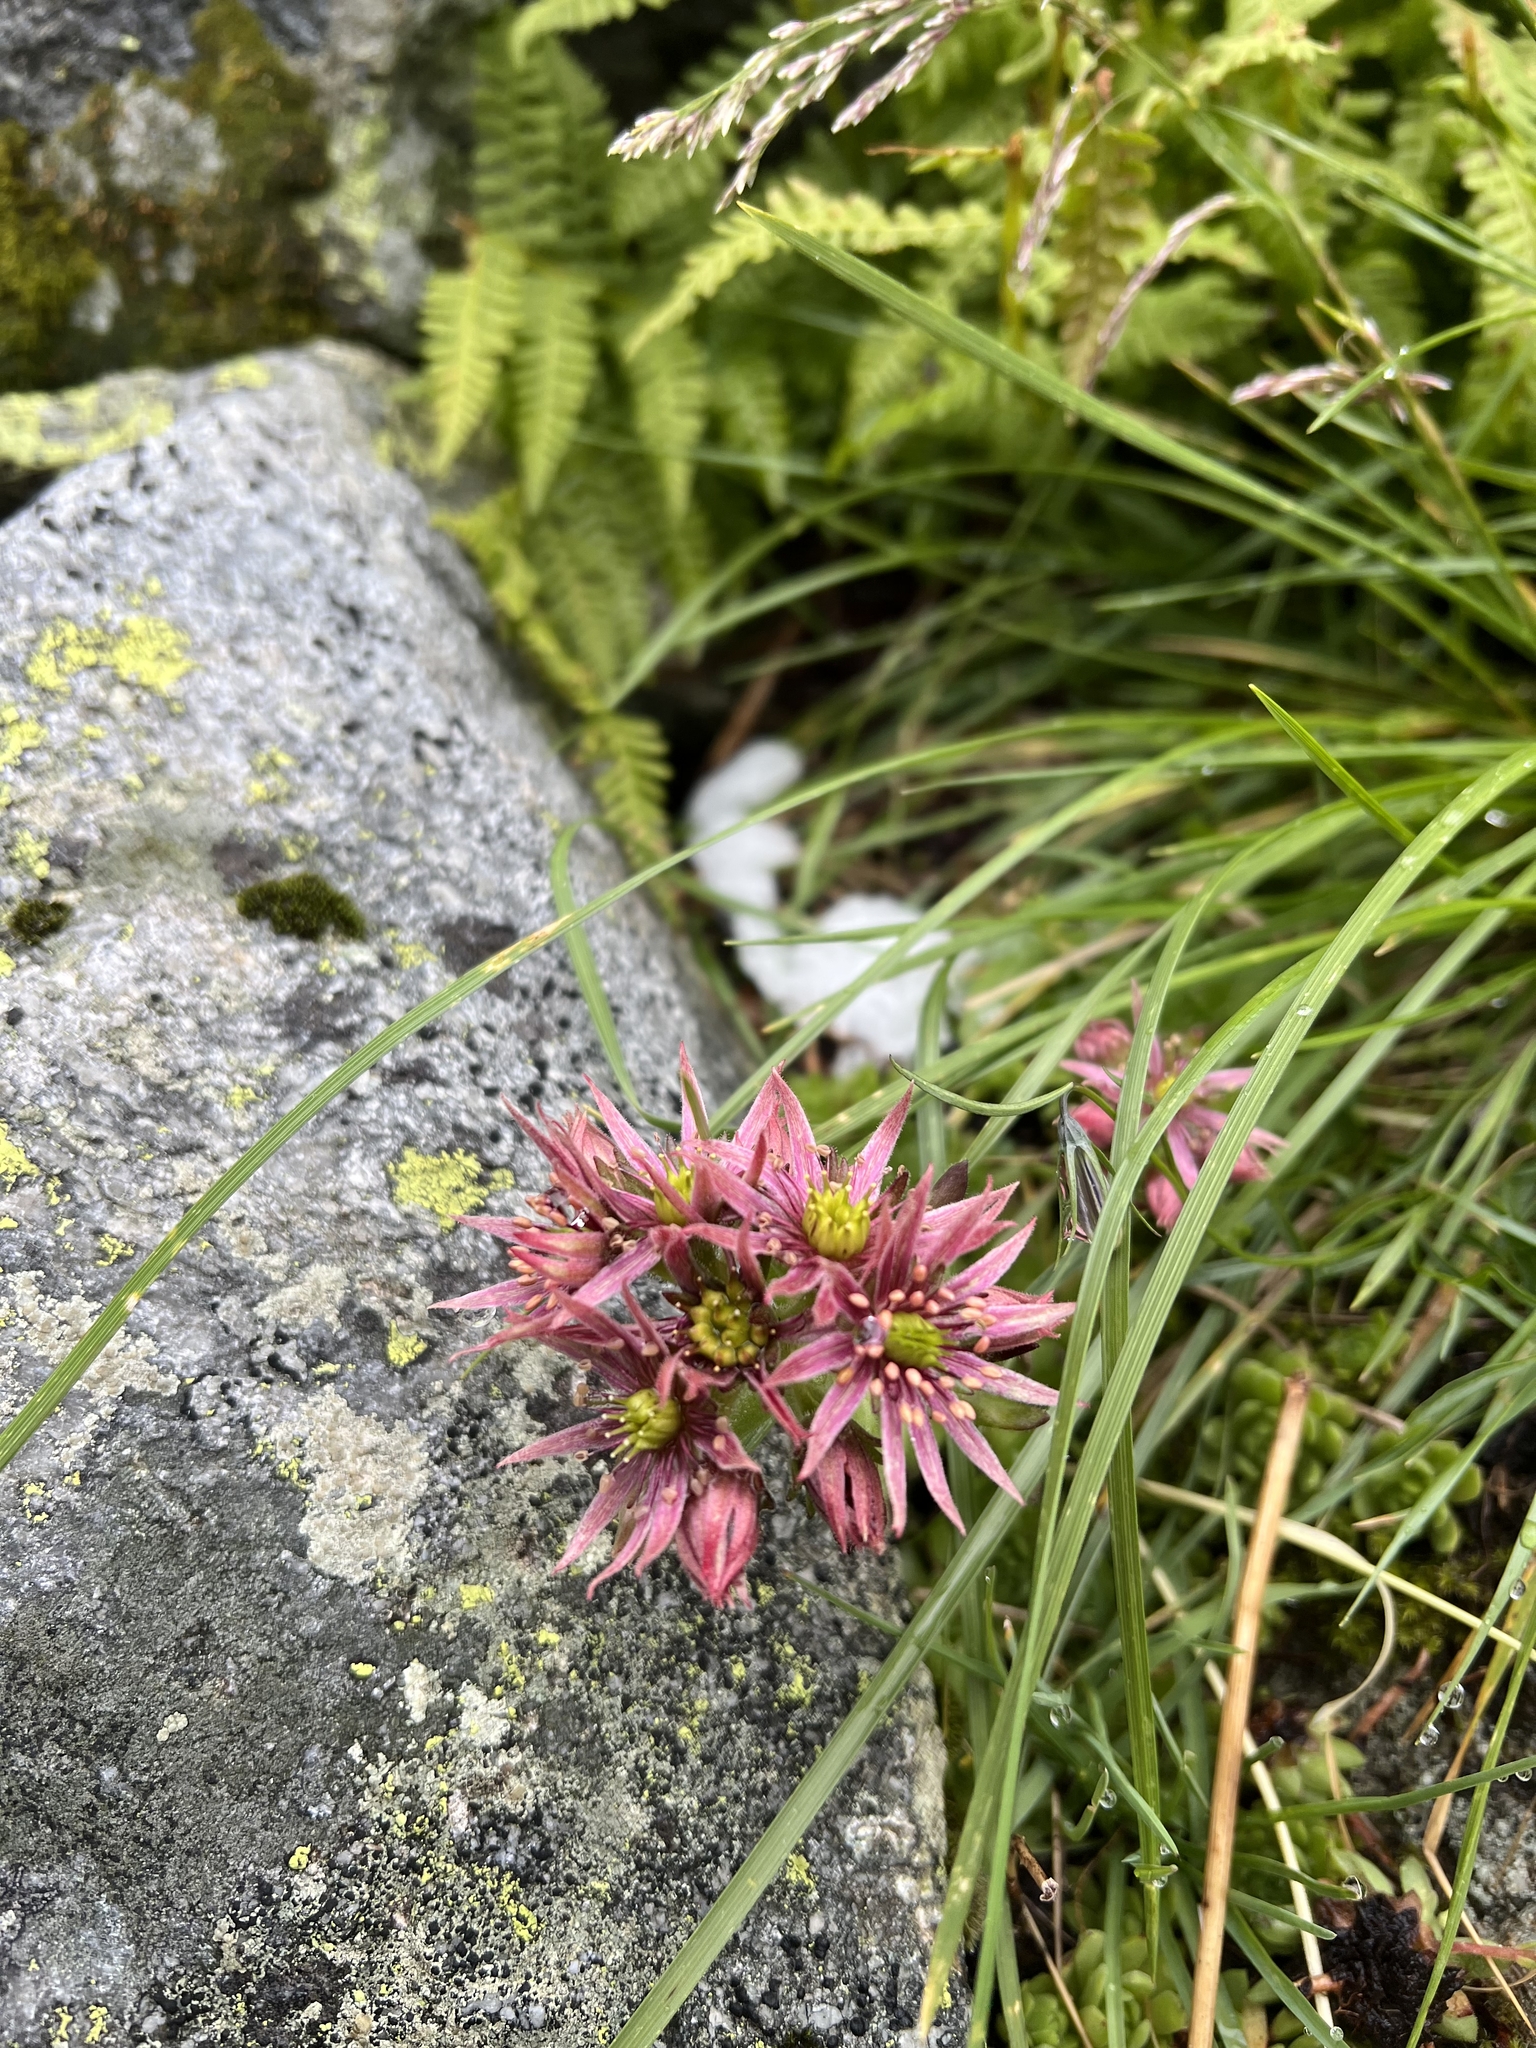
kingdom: Plantae
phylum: Tracheophyta
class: Magnoliopsida
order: Saxifragales
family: Crassulaceae
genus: Sempervivum
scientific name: Sempervivum montanum
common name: Mountain house-leek
